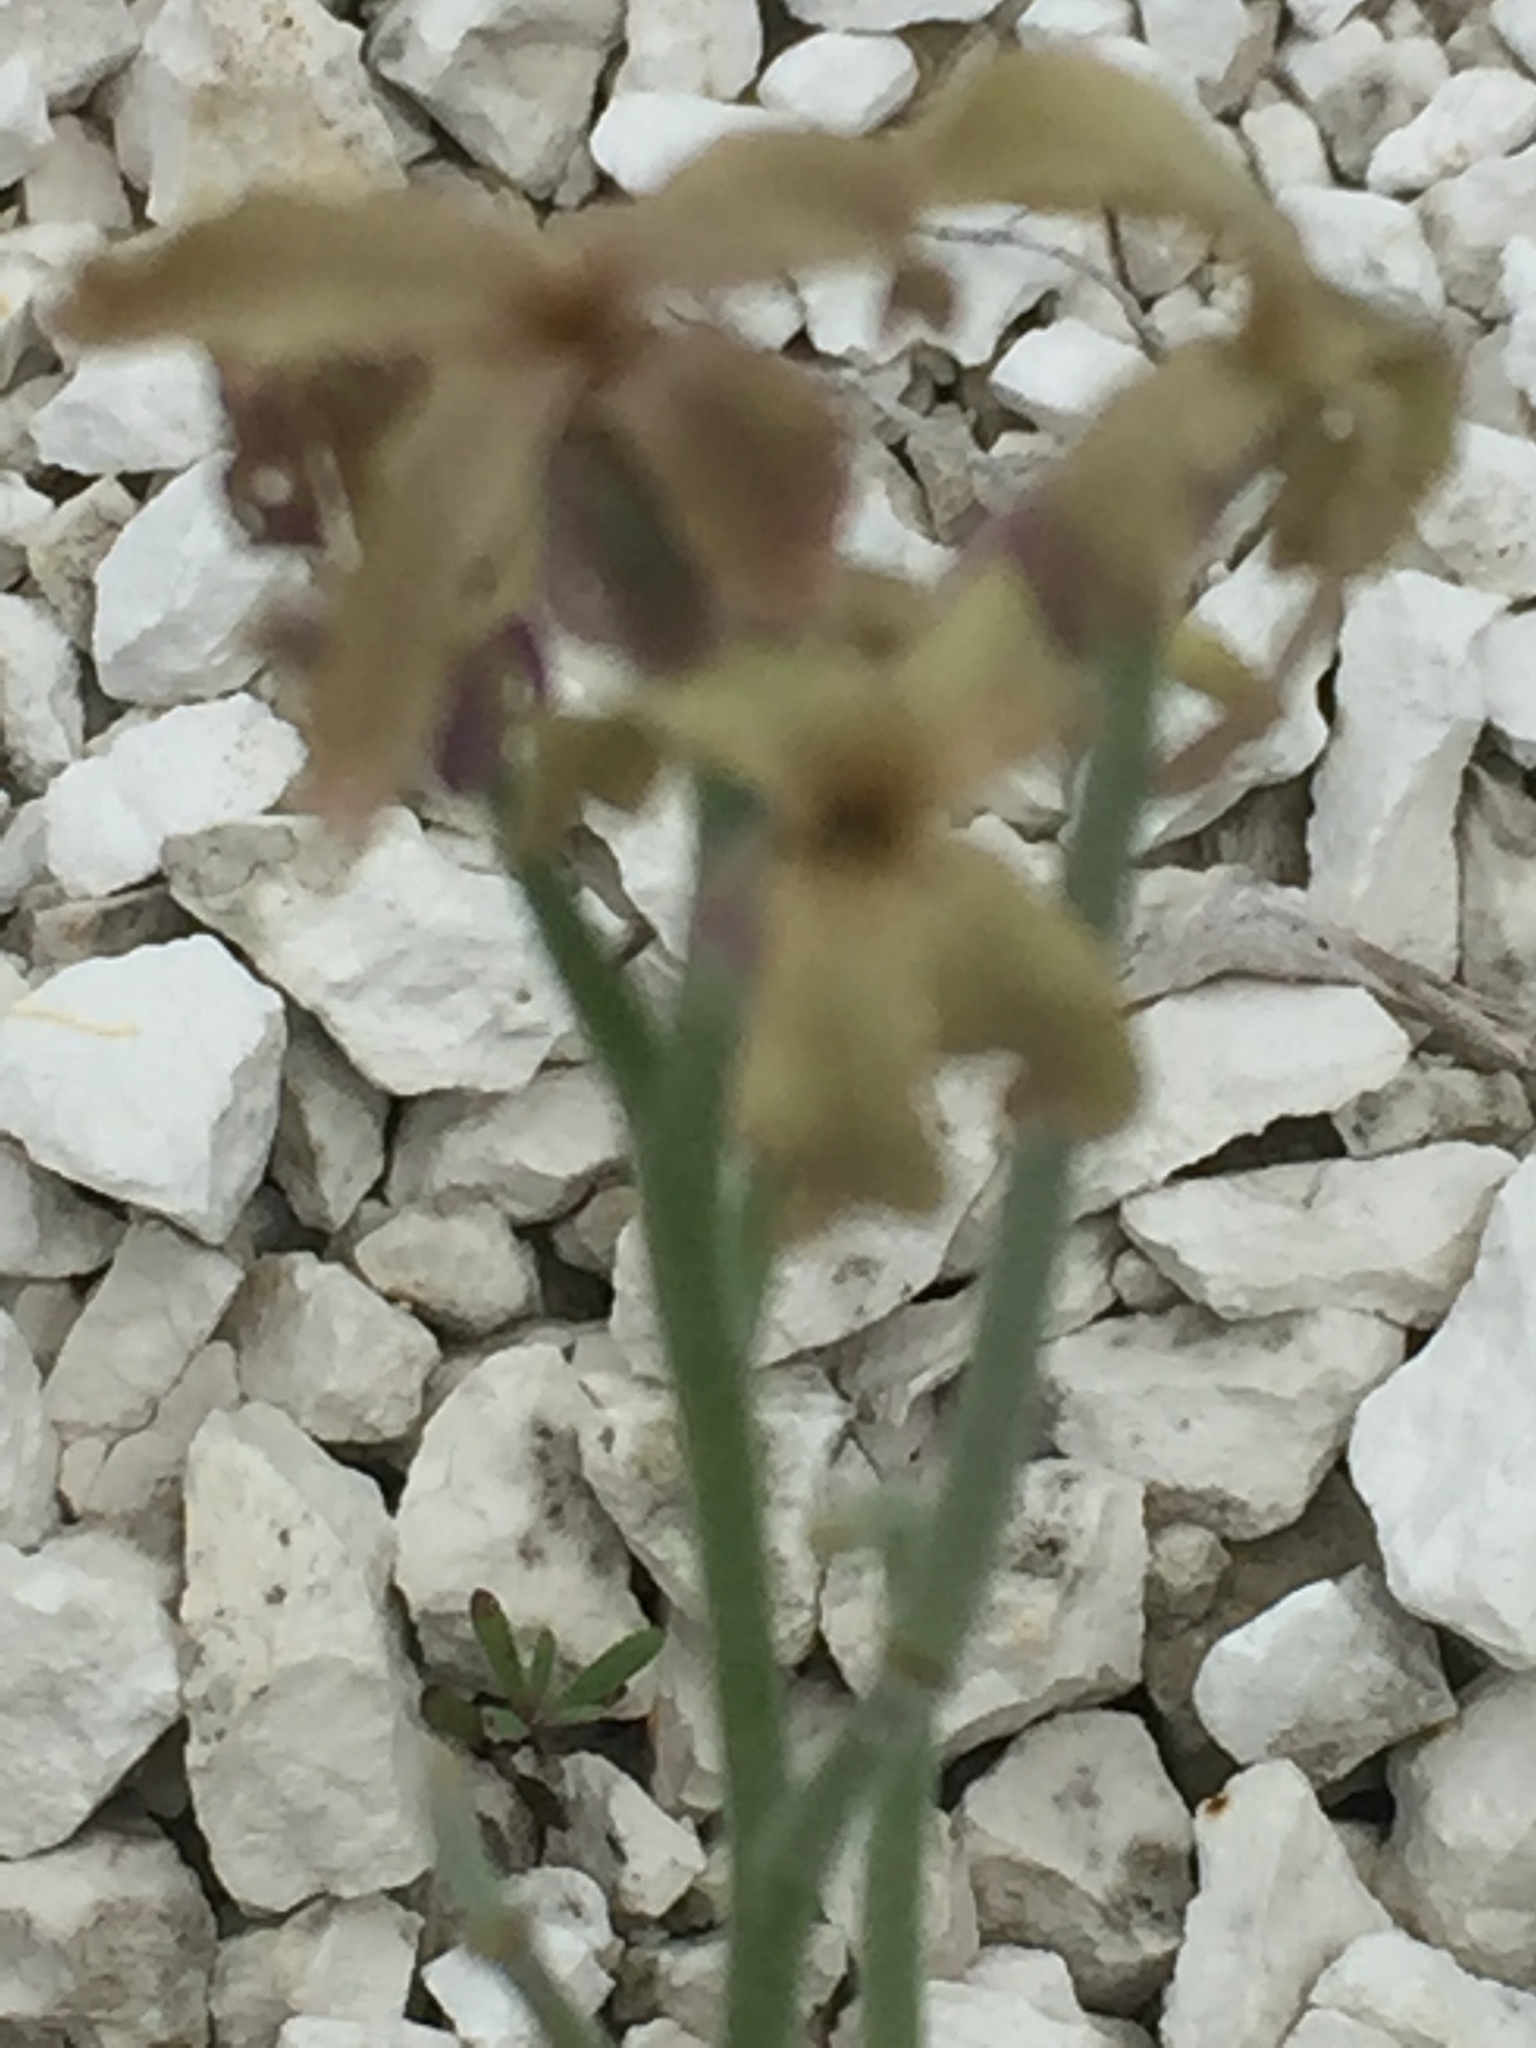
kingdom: Plantae
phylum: Tracheophyta
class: Magnoliopsida
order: Brassicales
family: Brassicaceae
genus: Matthiola
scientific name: Matthiola fragrans
